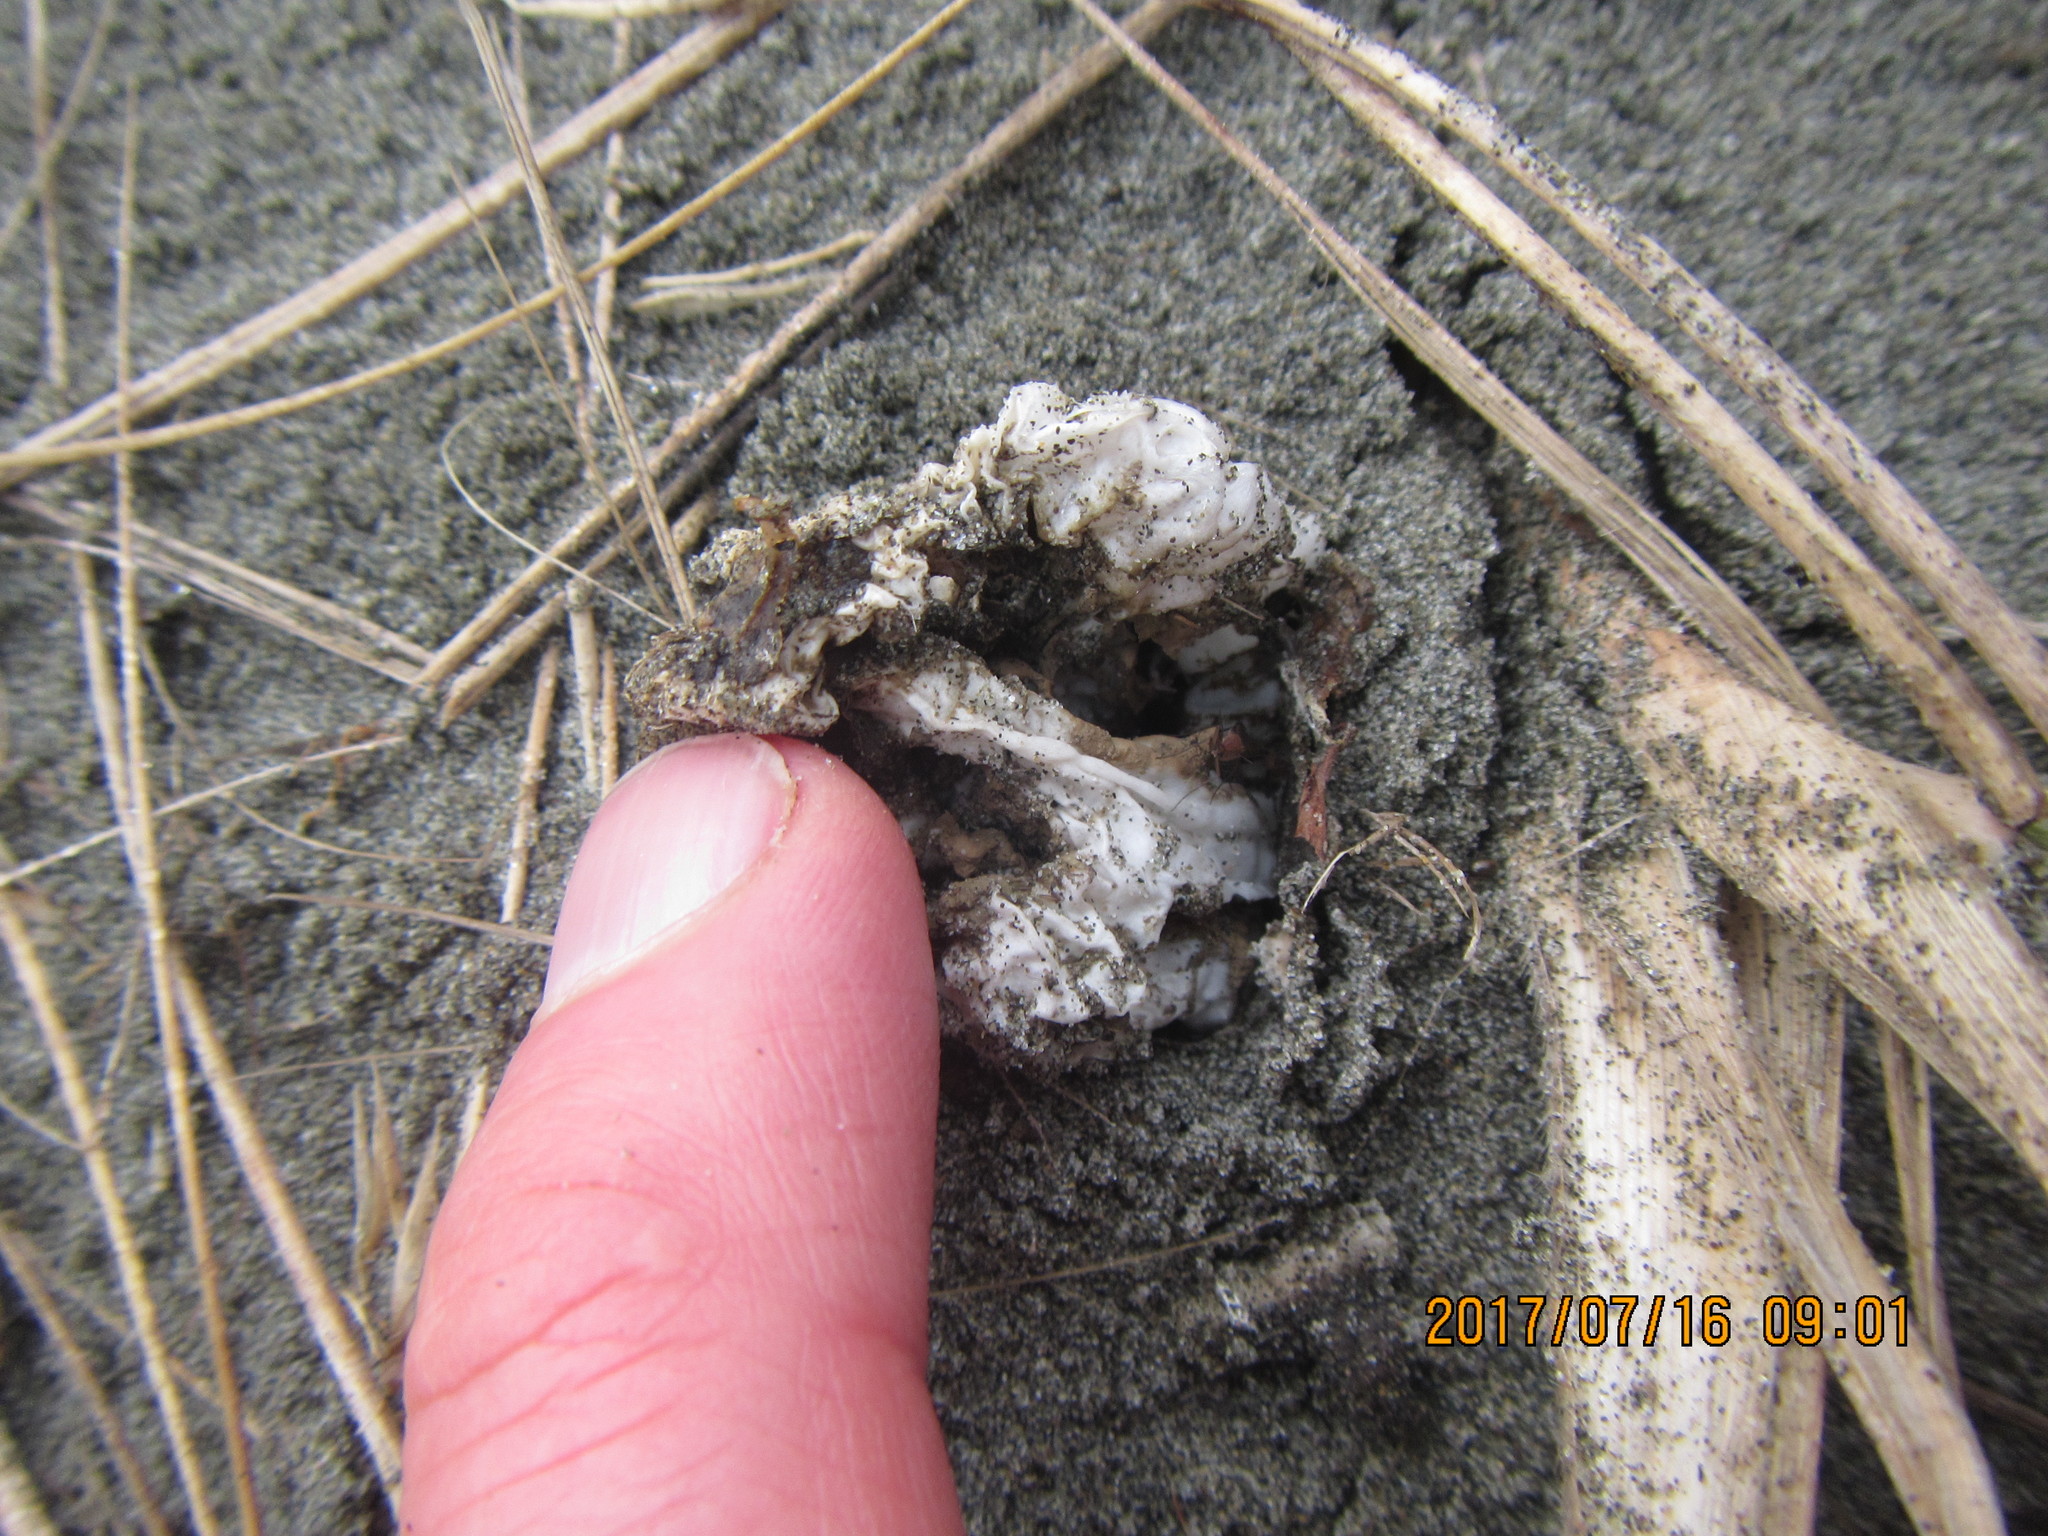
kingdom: Fungi
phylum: Basidiomycota
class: Agaricomycetes
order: Phallales
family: Phallaceae
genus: Ileodictyon
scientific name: Ileodictyon cibarium
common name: Basket fungus
